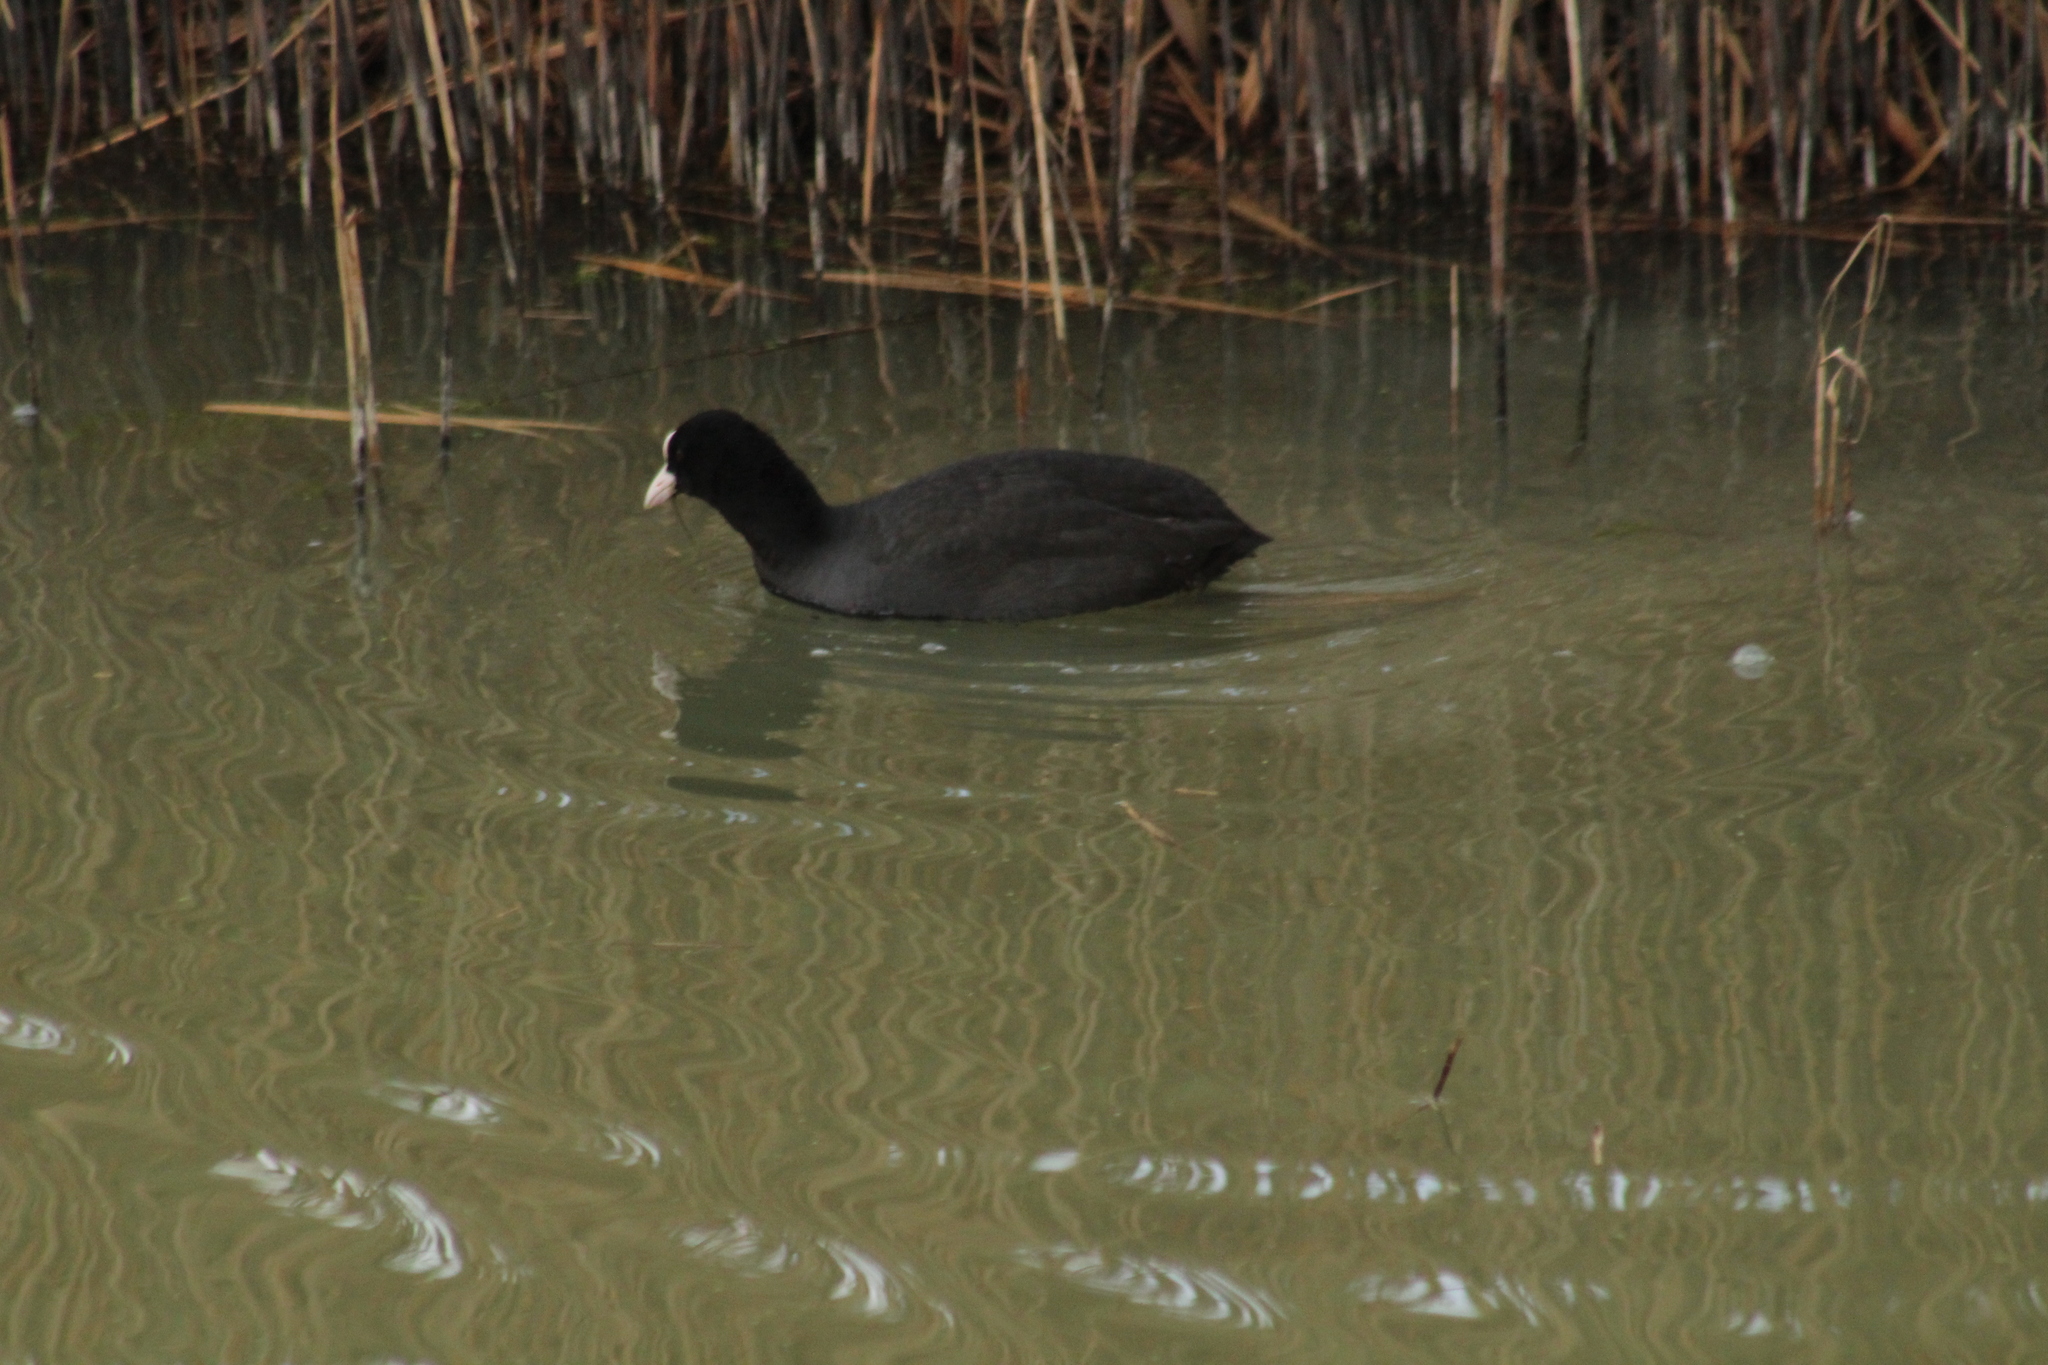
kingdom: Animalia
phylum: Chordata
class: Aves
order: Gruiformes
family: Rallidae
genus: Fulica
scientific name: Fulica atra
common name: Eurasian coot
